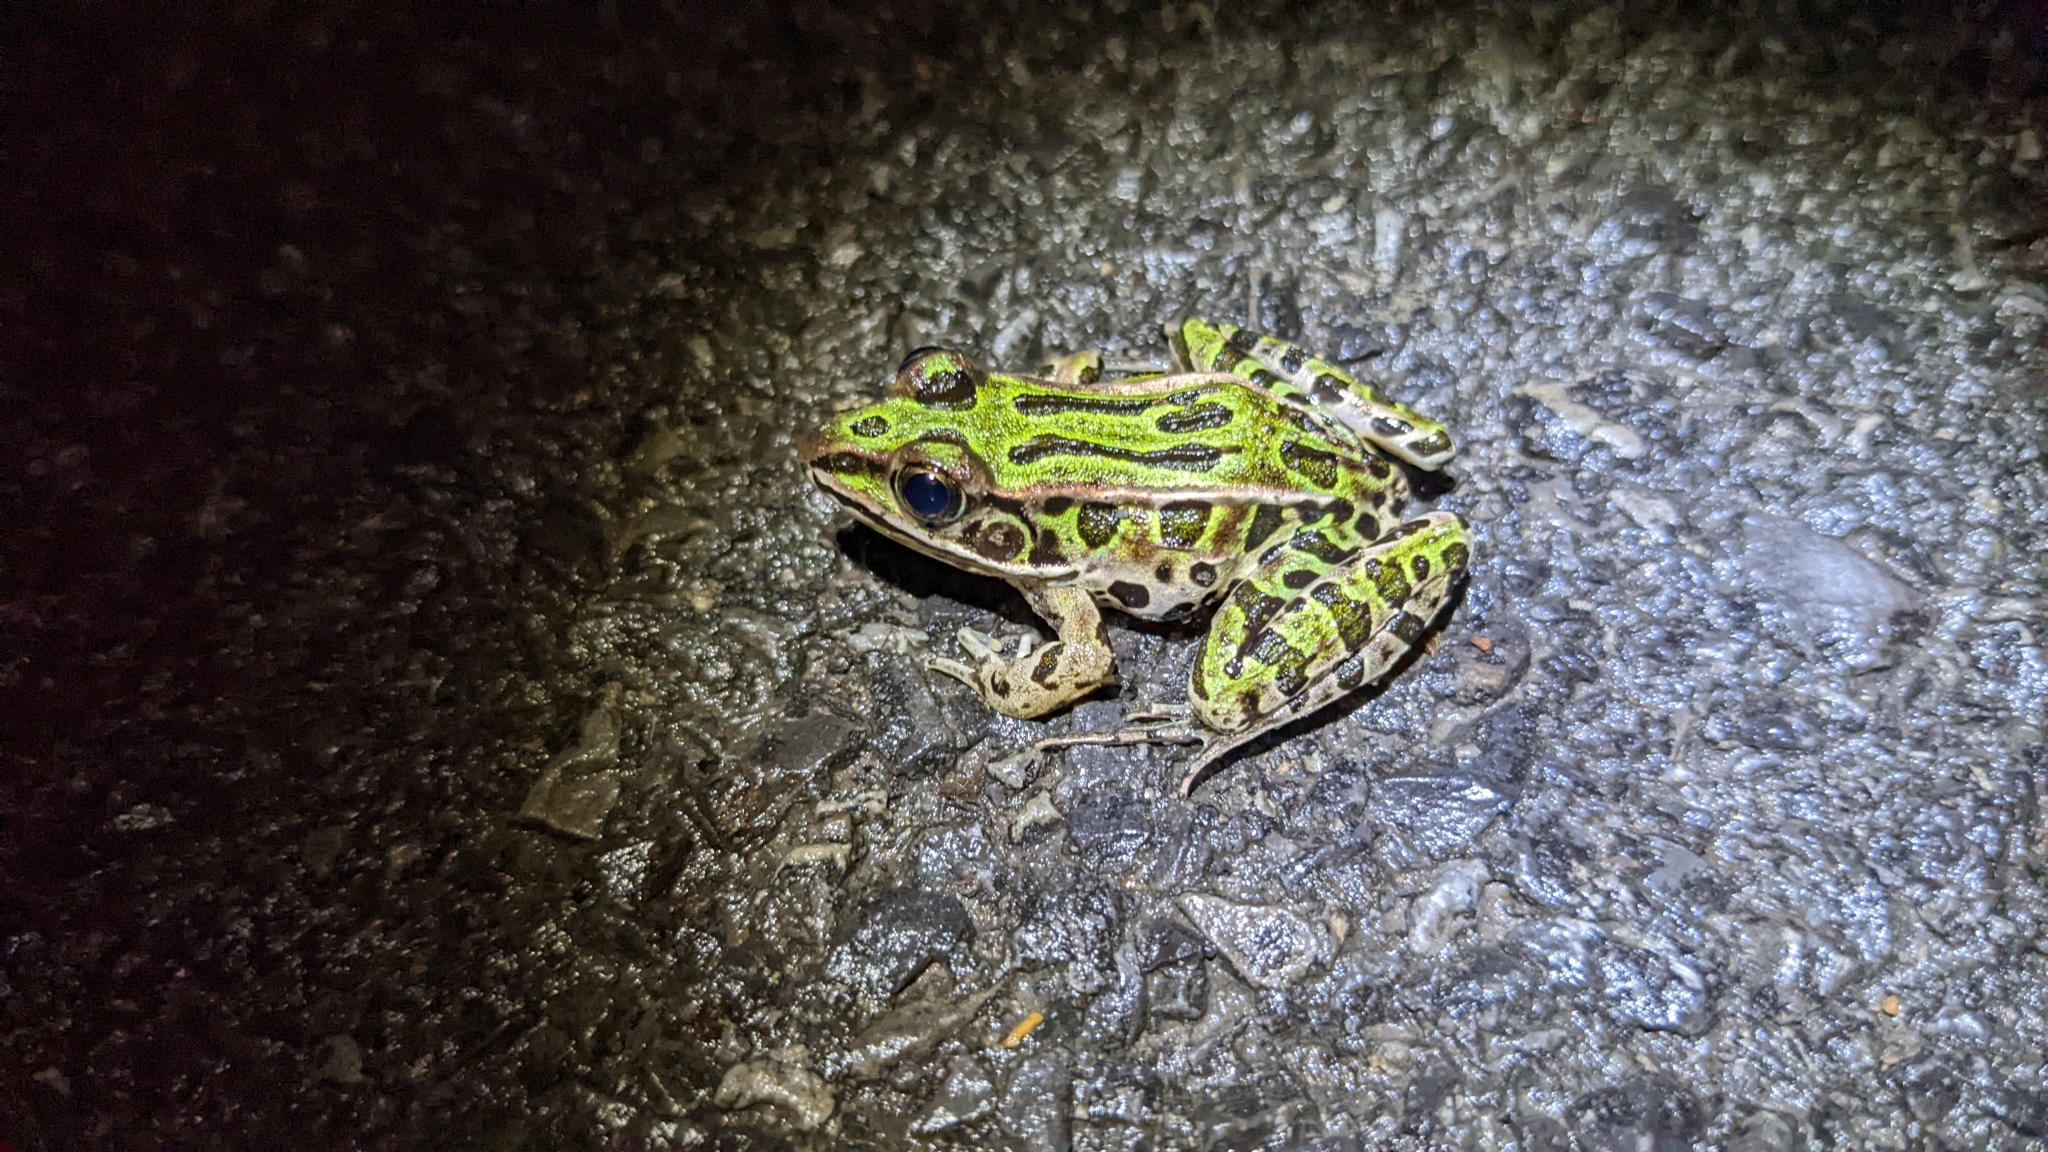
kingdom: Animalia
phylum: Chordata
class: Amphibia
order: Anura
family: Ranidae
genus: Lithobates
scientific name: Lithobates pipiens
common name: Northern leopard frog
